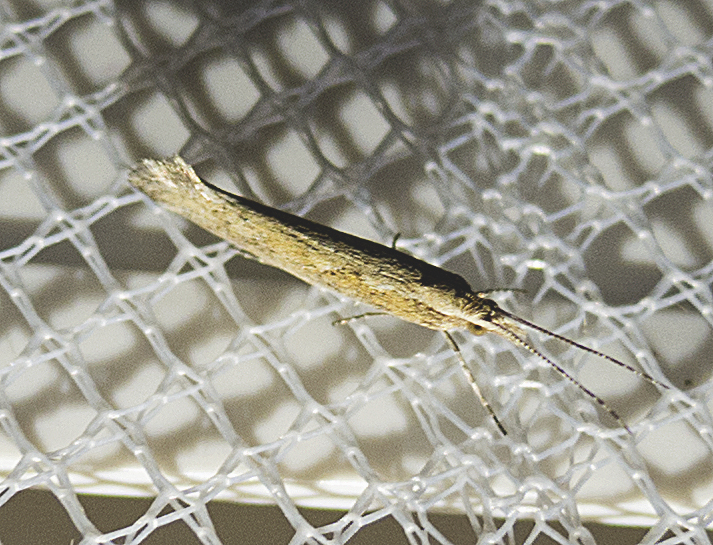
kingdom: Animalia
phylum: Arthropoda
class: Insecta
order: Lepidoptera
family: Plutellidae
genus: Plutella
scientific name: Plutella xylostella
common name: Diamond-back moth
